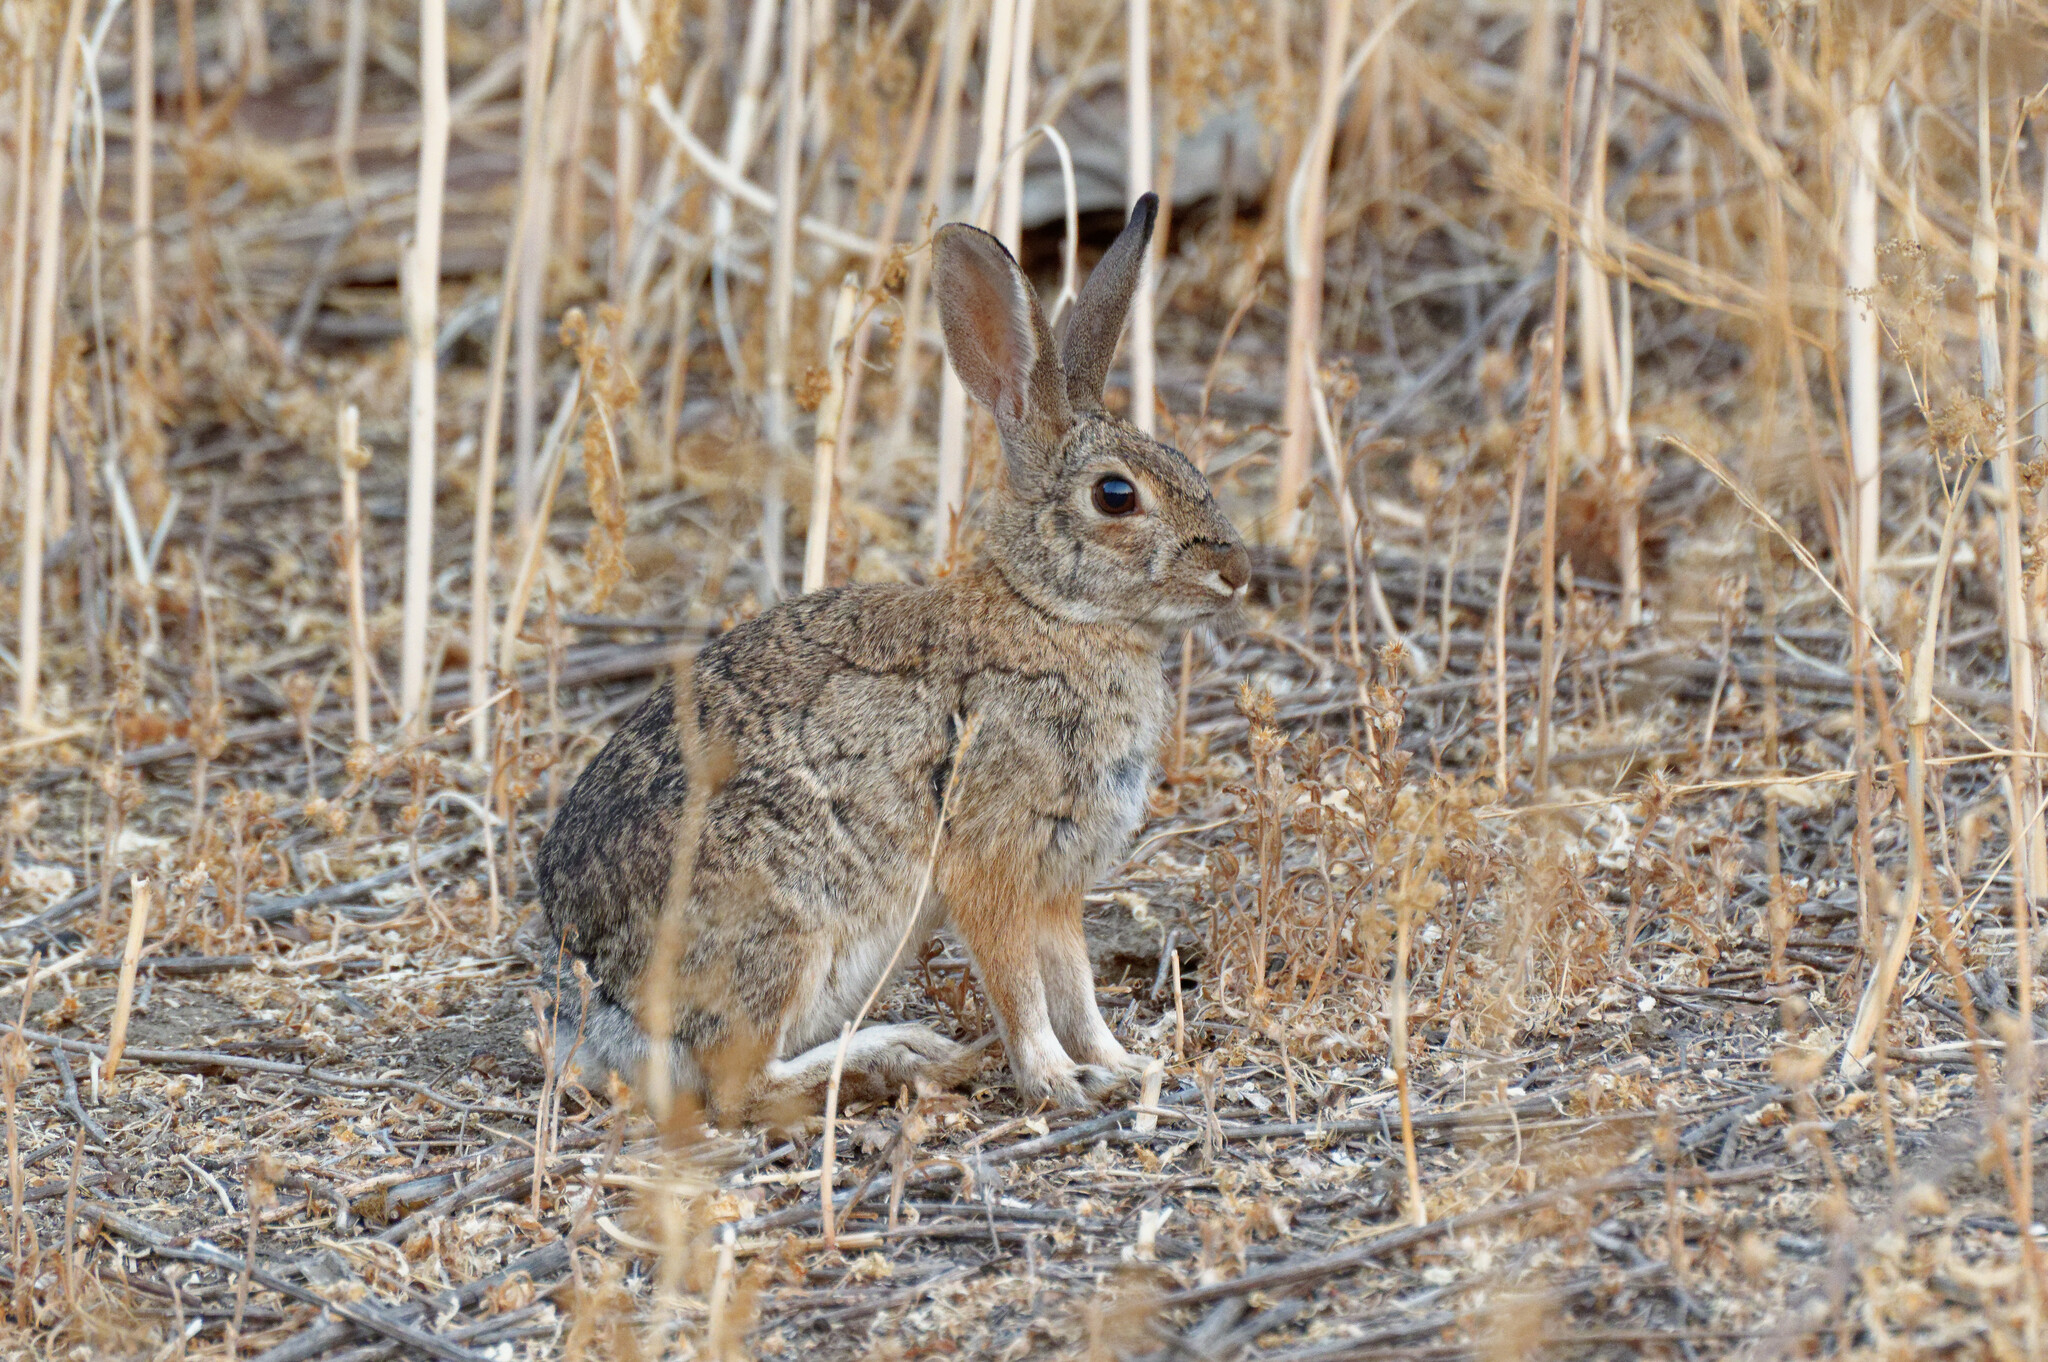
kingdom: Animalia
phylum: Chordata
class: Mammalia
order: Lagomorpha
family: Leporidae
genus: Sylvilagus
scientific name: Sylvilagus audubonii
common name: Desert cottontail
